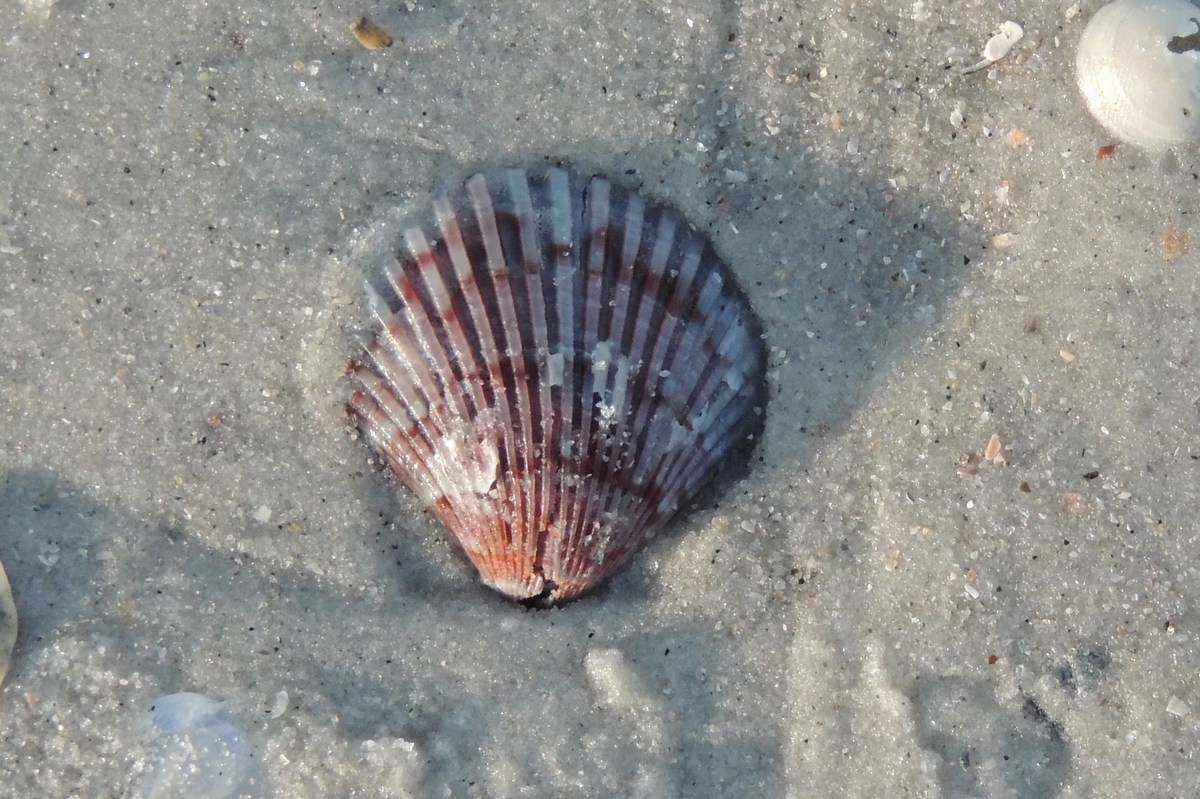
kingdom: Animalia
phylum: Mollusca
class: Bivalvia
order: Pectinida
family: Pectinidae
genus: Argopecten
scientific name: Argopecten gibbus
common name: Atlantic calico scallop
